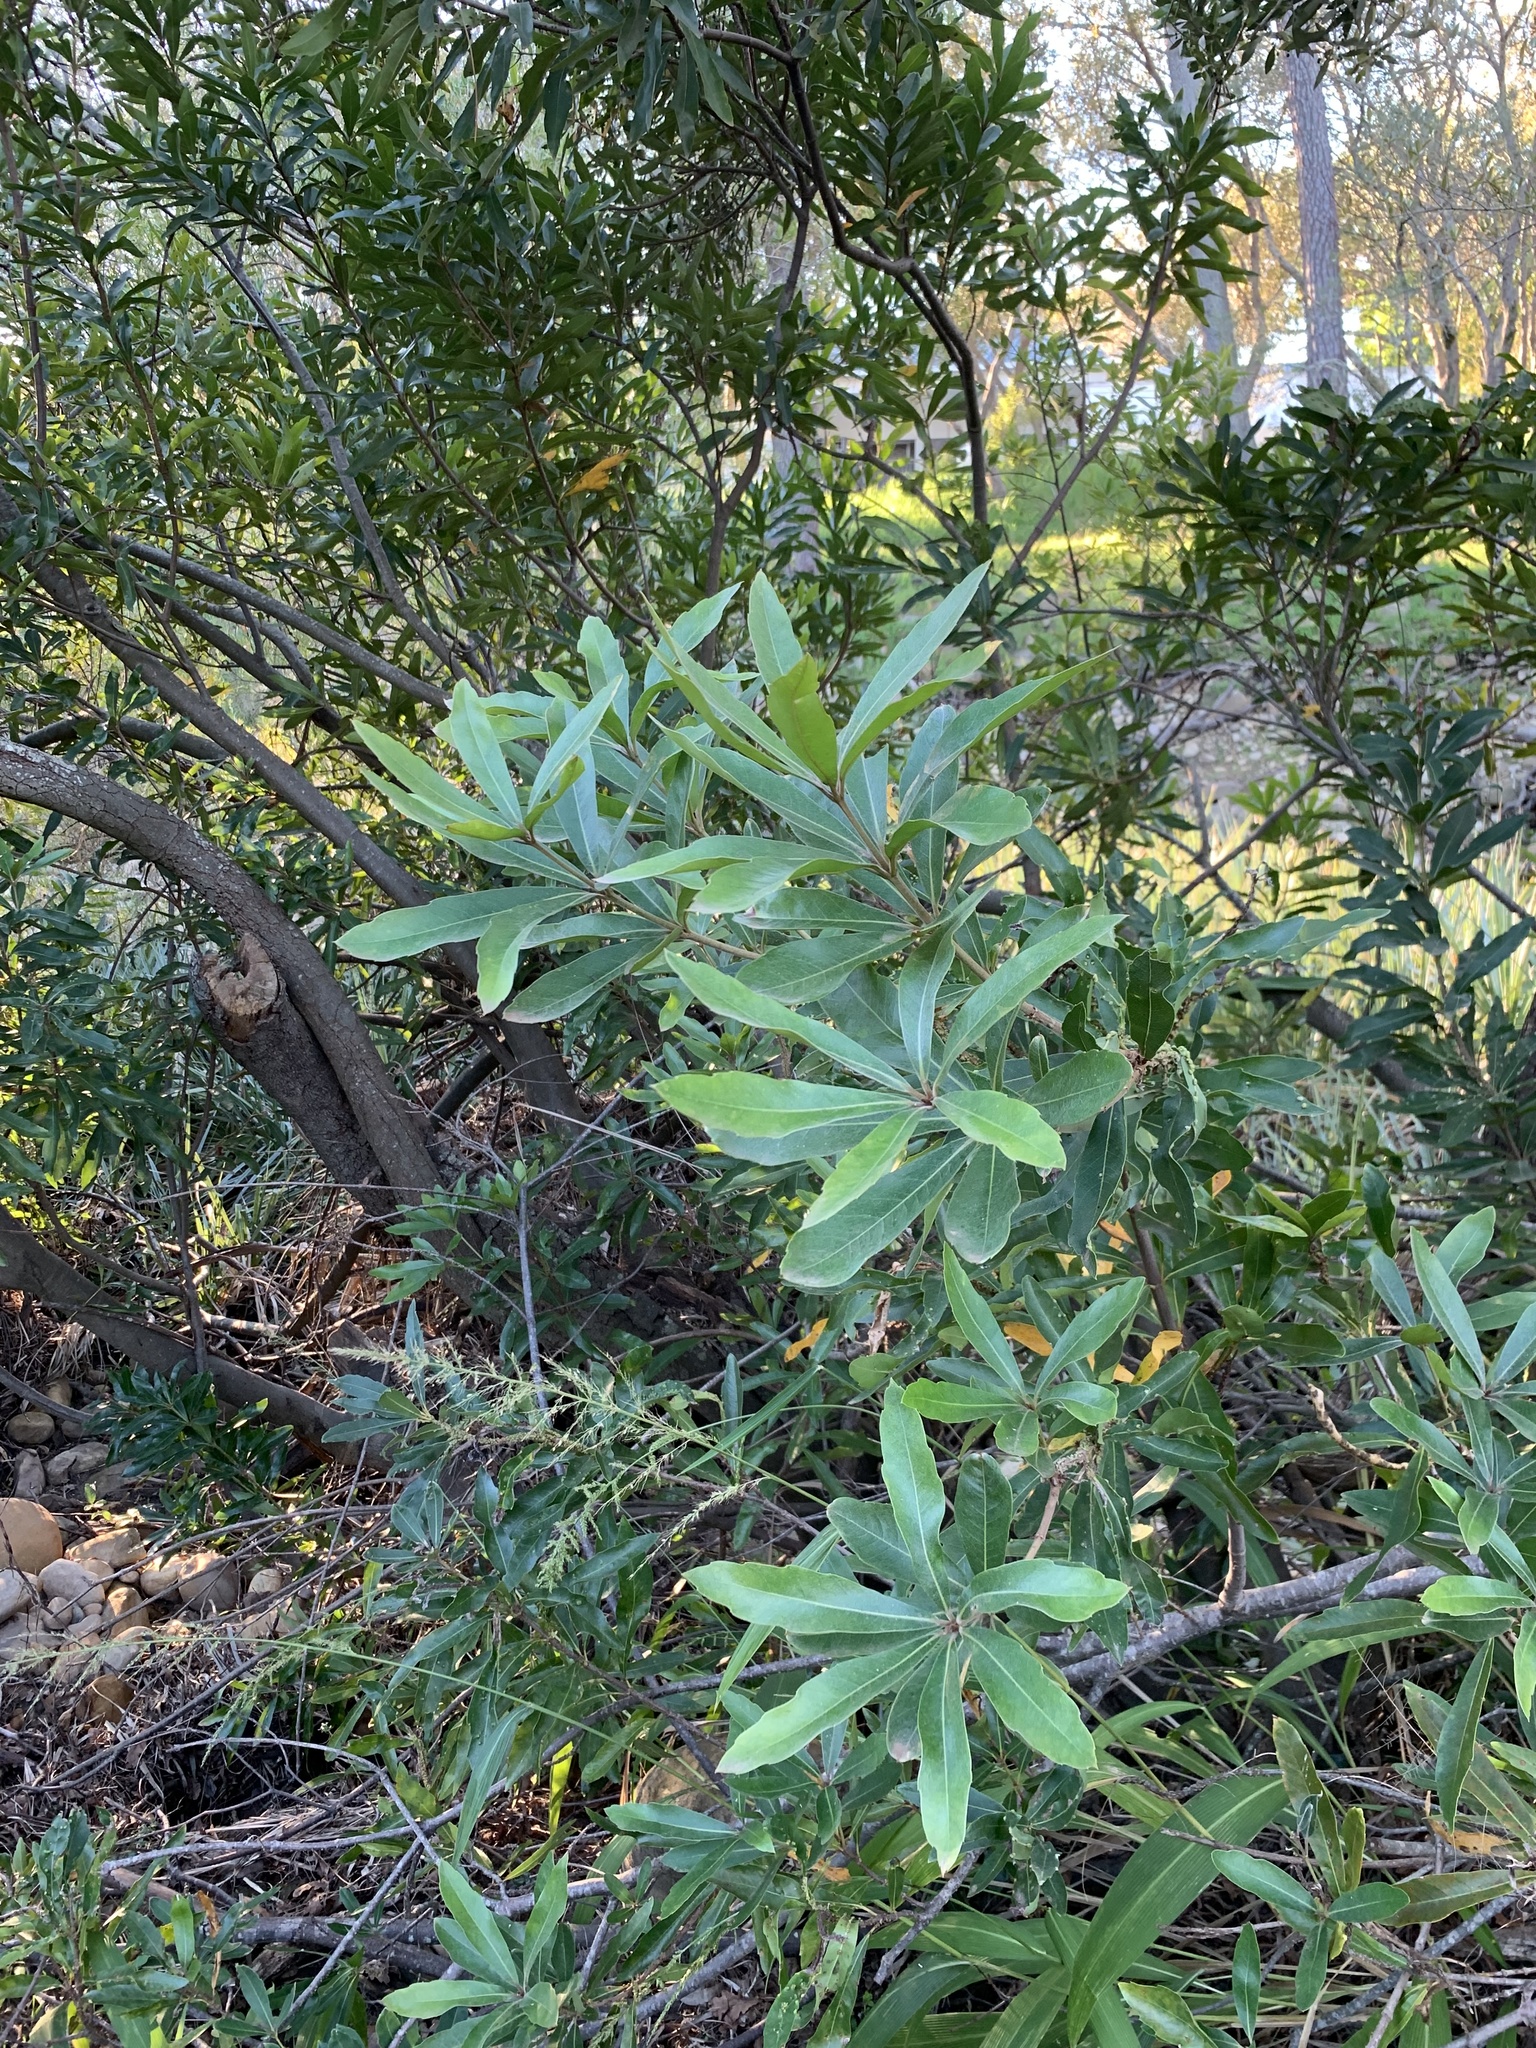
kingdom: Plantae
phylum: Tracheophyta
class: Magnoliopsida
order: Proteales
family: Proteaceae
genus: Brabejum
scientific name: Brabejum stellatifolium
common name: Wild almond
